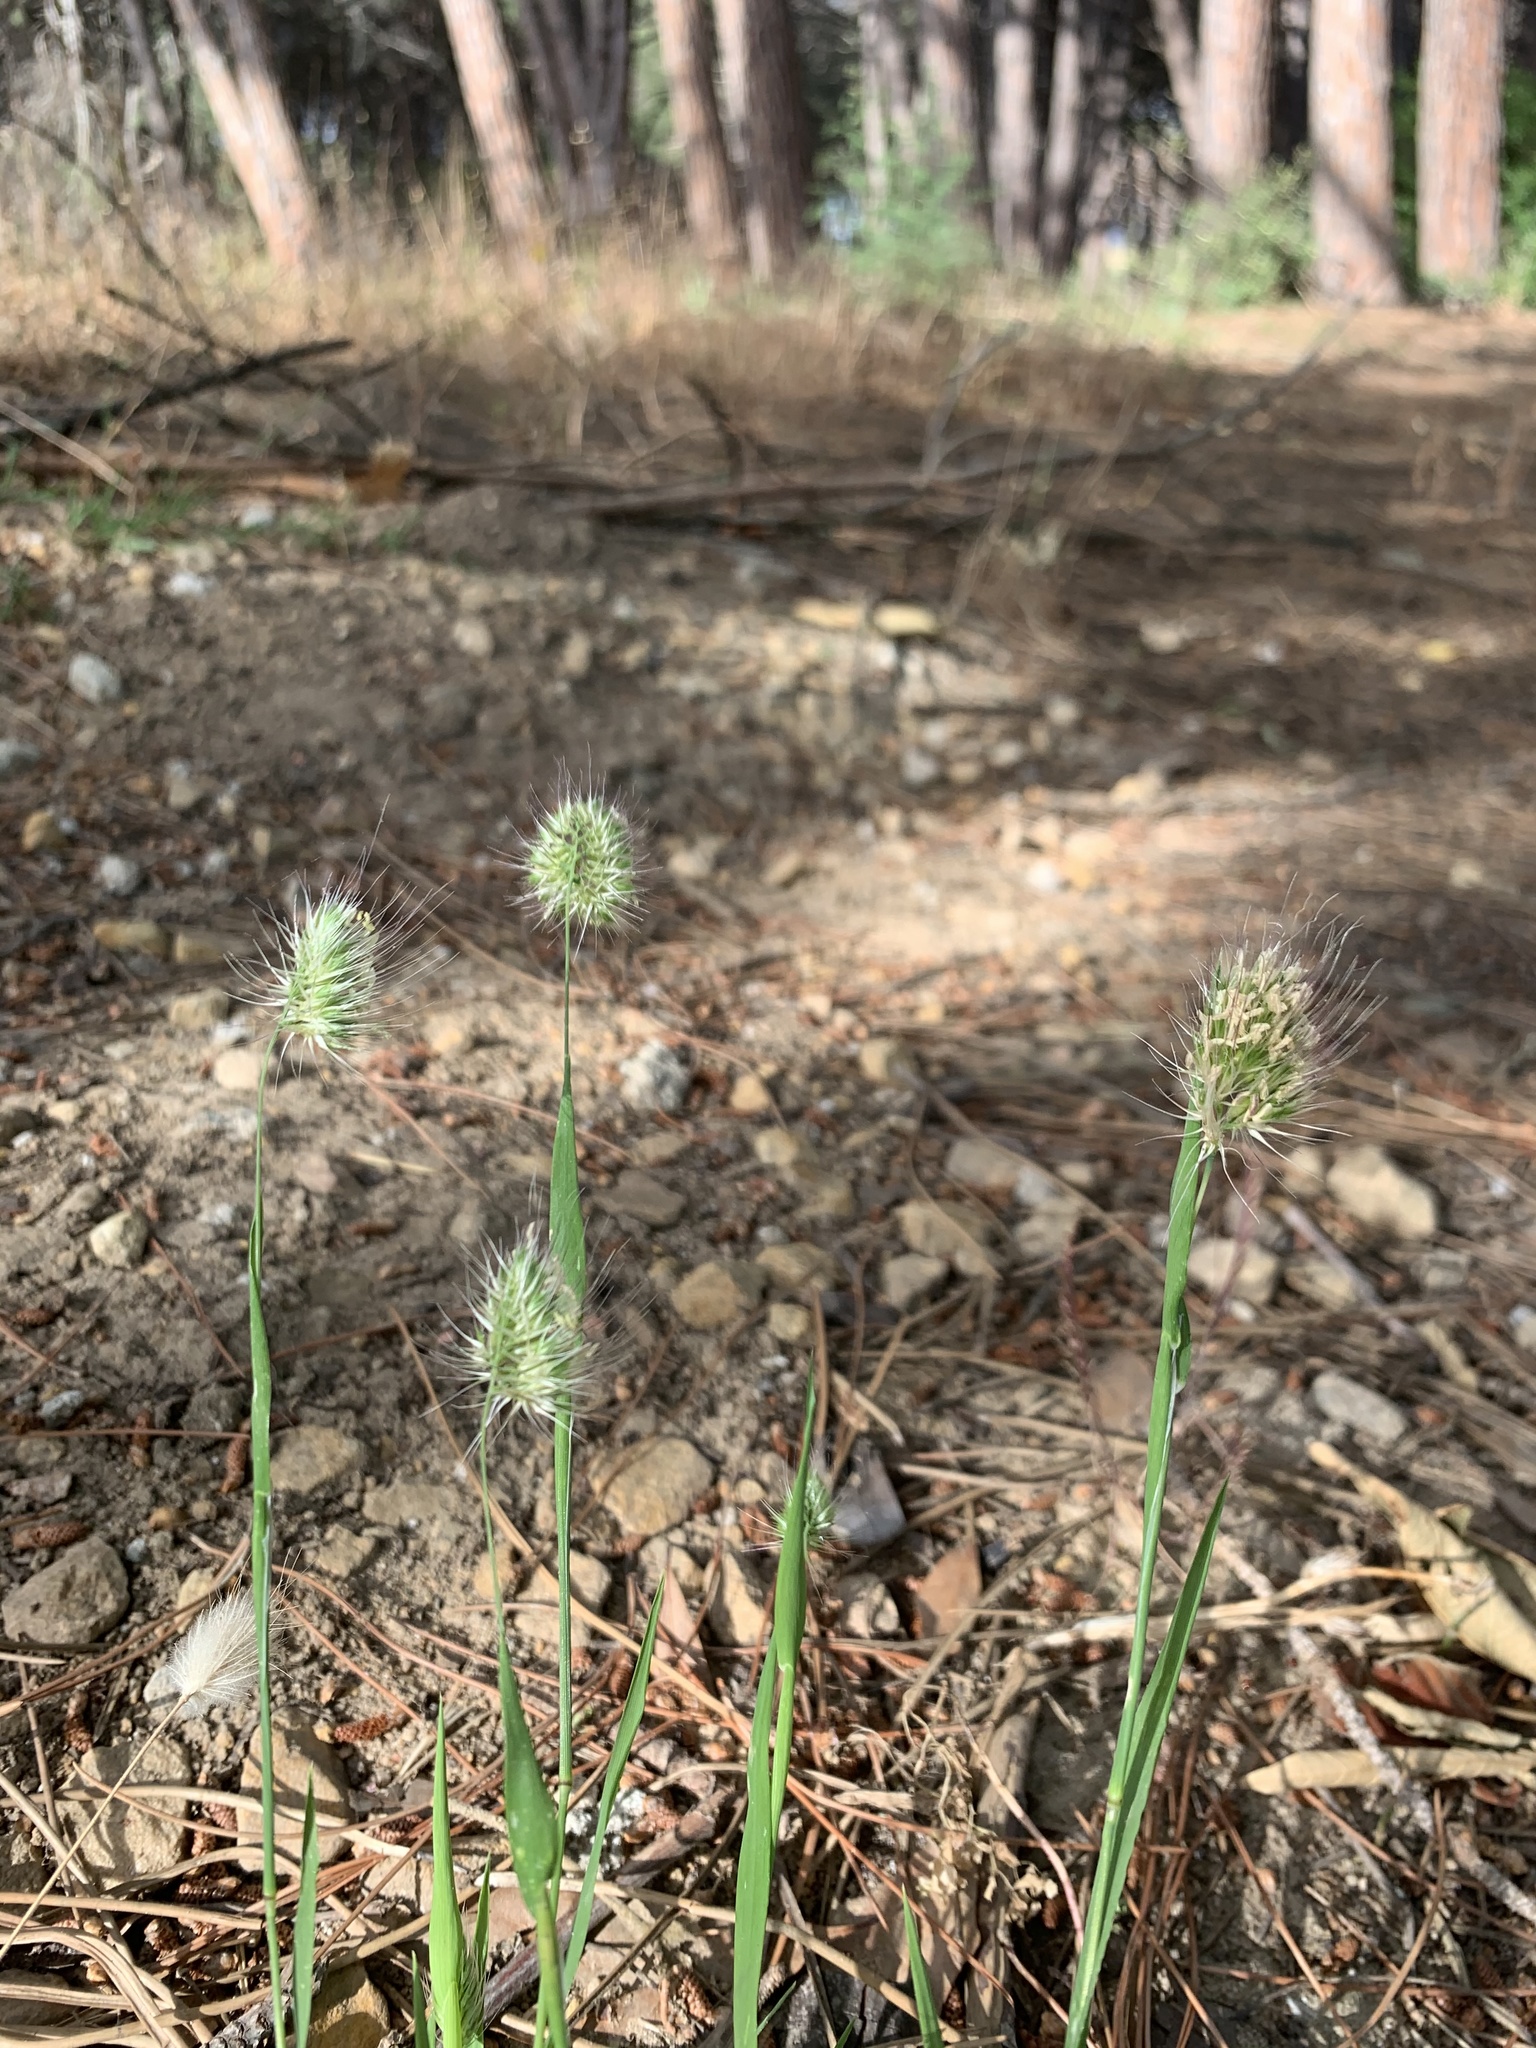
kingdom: Plantae
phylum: Tracheophyta
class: Liliopsida
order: Poales
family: Poaceae
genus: Cynosurus
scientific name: Cynosurus echinatus
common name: Rough dog's-tail
